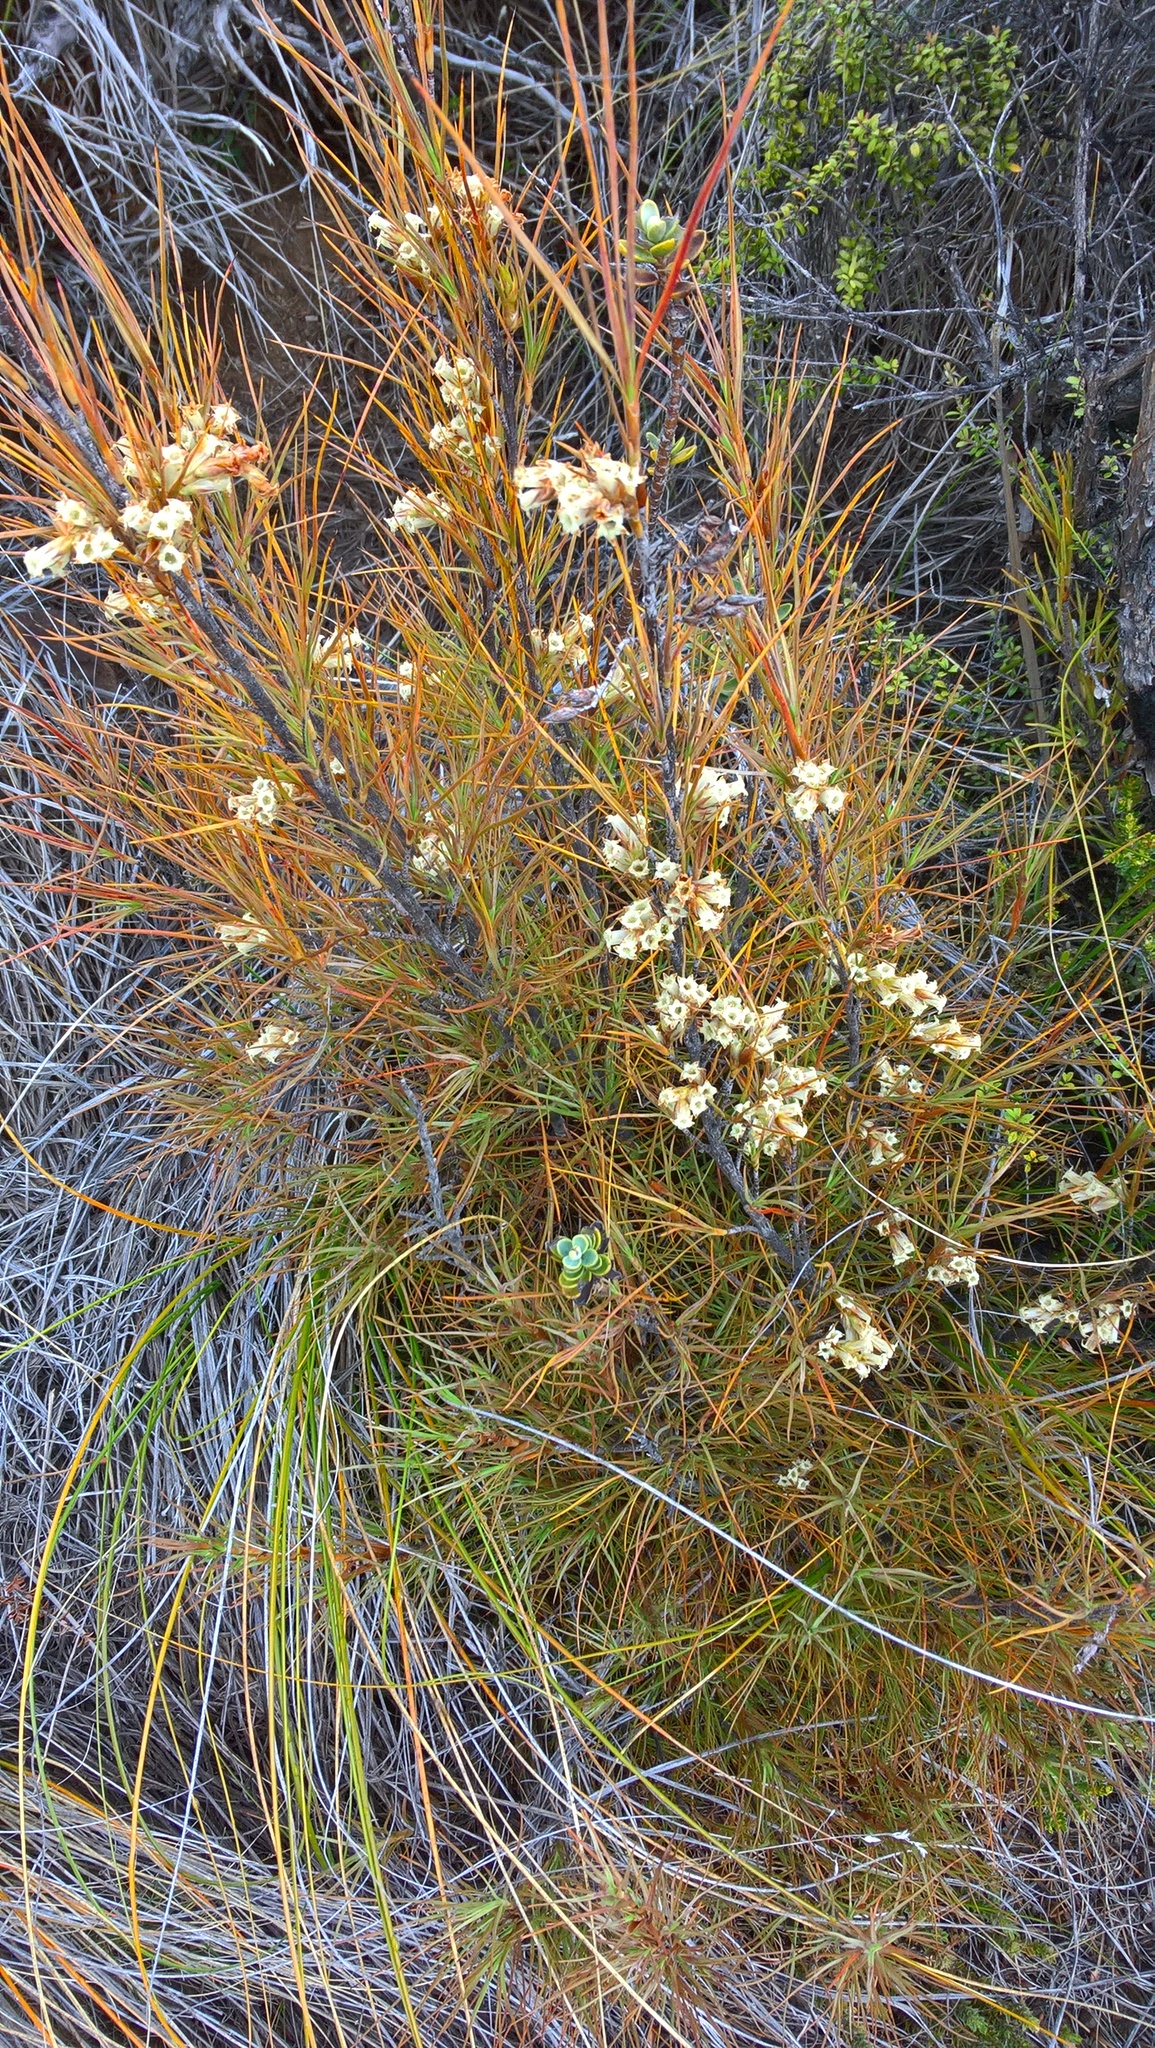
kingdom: Plantae
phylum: Tracheophyta
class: Magnoliopsida
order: Ericales
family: Ericaceae
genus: Dracophyllum
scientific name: Dracophyllum filifolium
